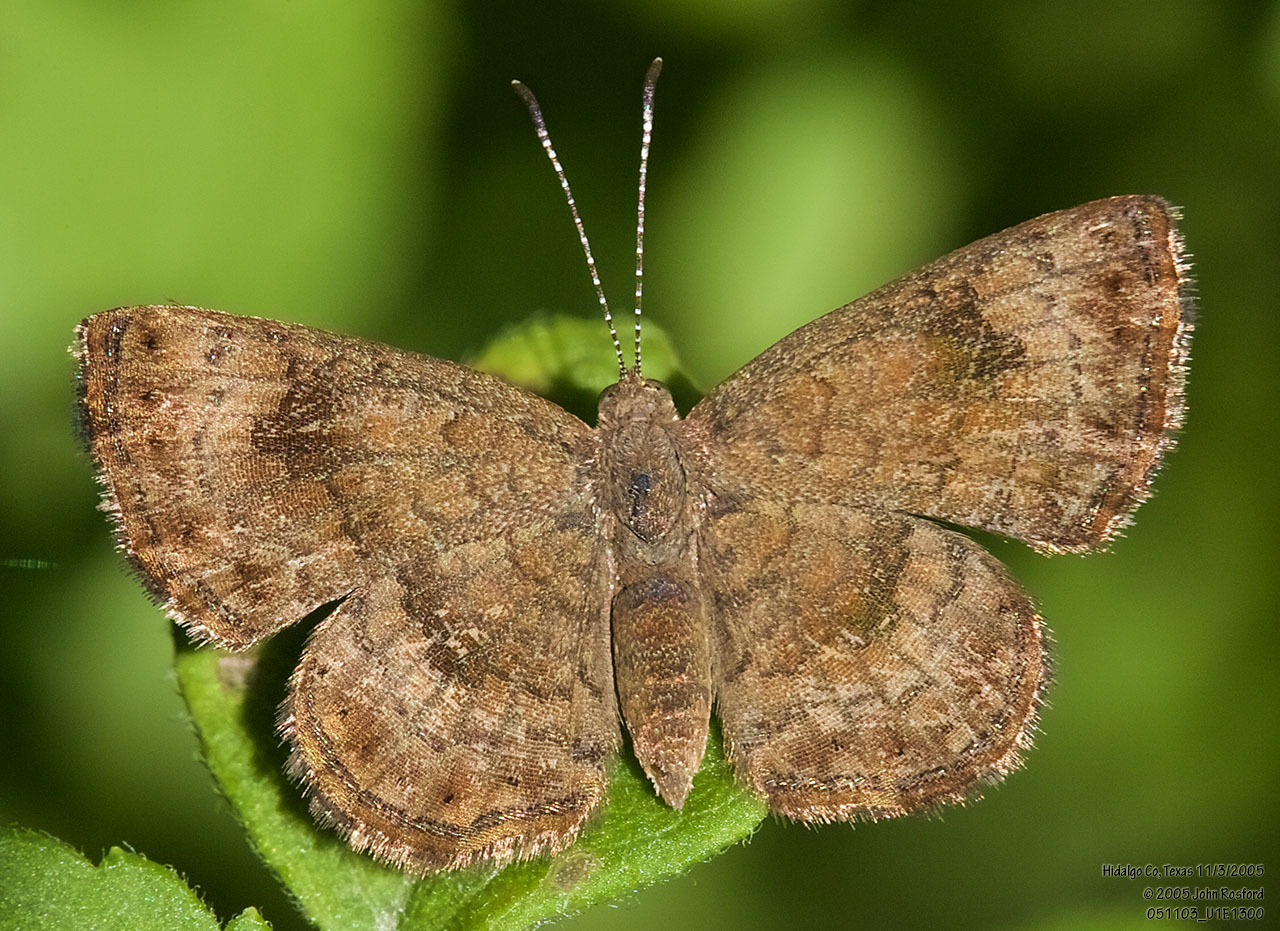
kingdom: Animalia
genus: Calephelis
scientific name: Calephelis nemesis
